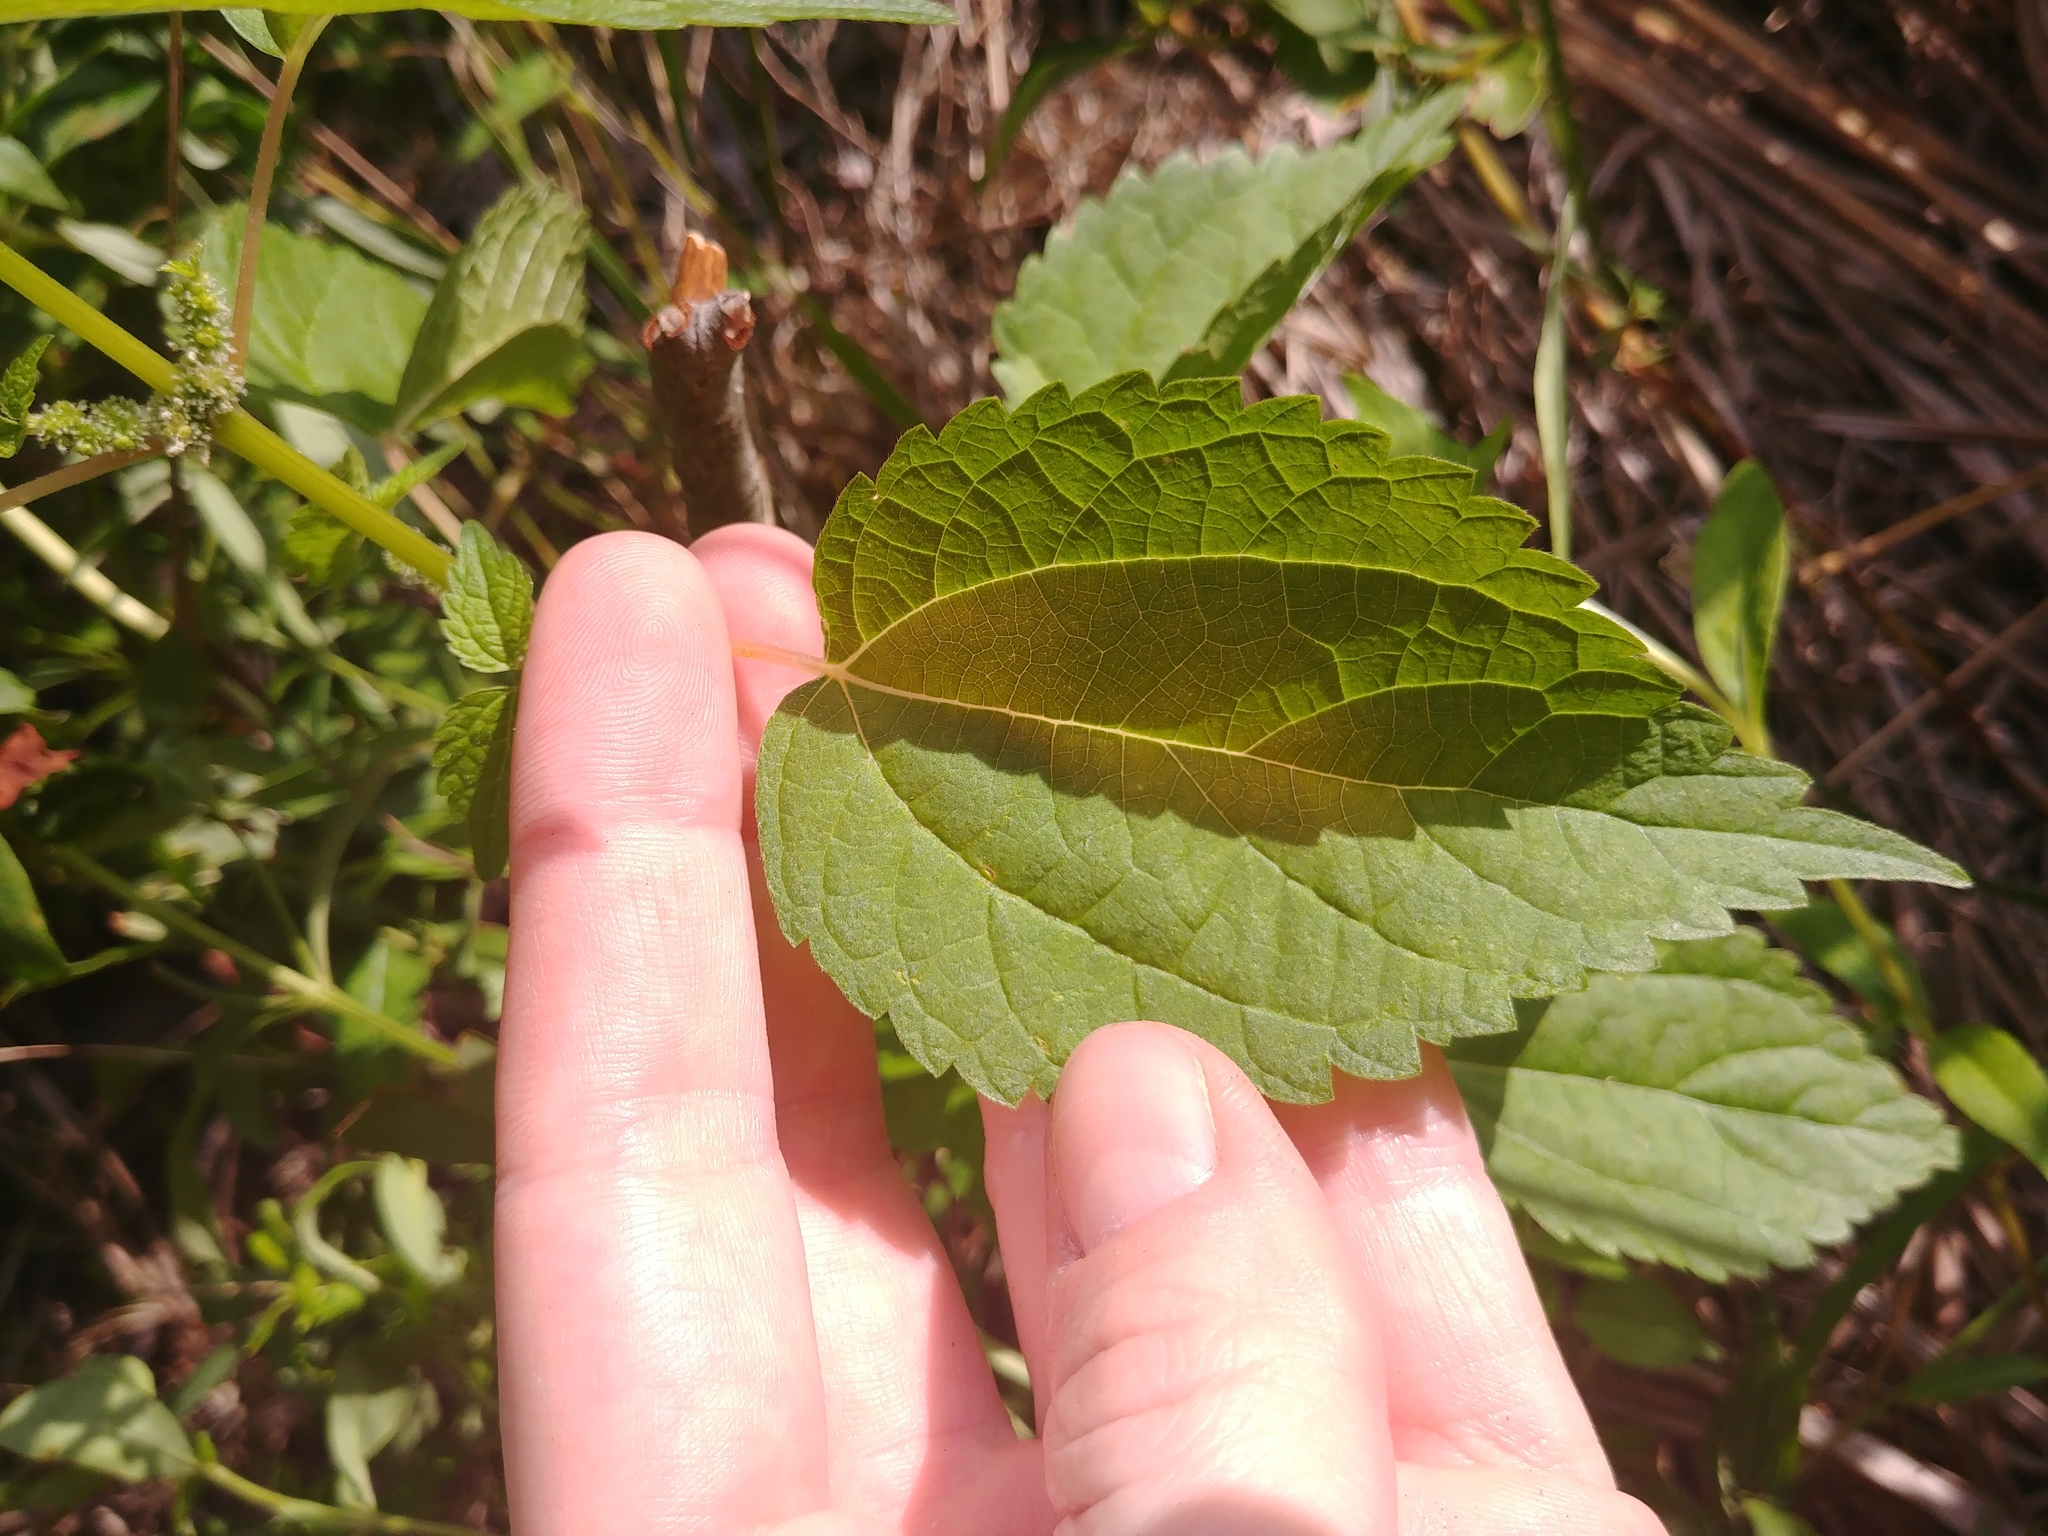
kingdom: Plantae
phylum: Tracheophyta
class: Magnoliopsida
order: Rosales
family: Urticaceae
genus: Boehmeria
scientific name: Boehmeria cylindrica
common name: Bog-hemp
